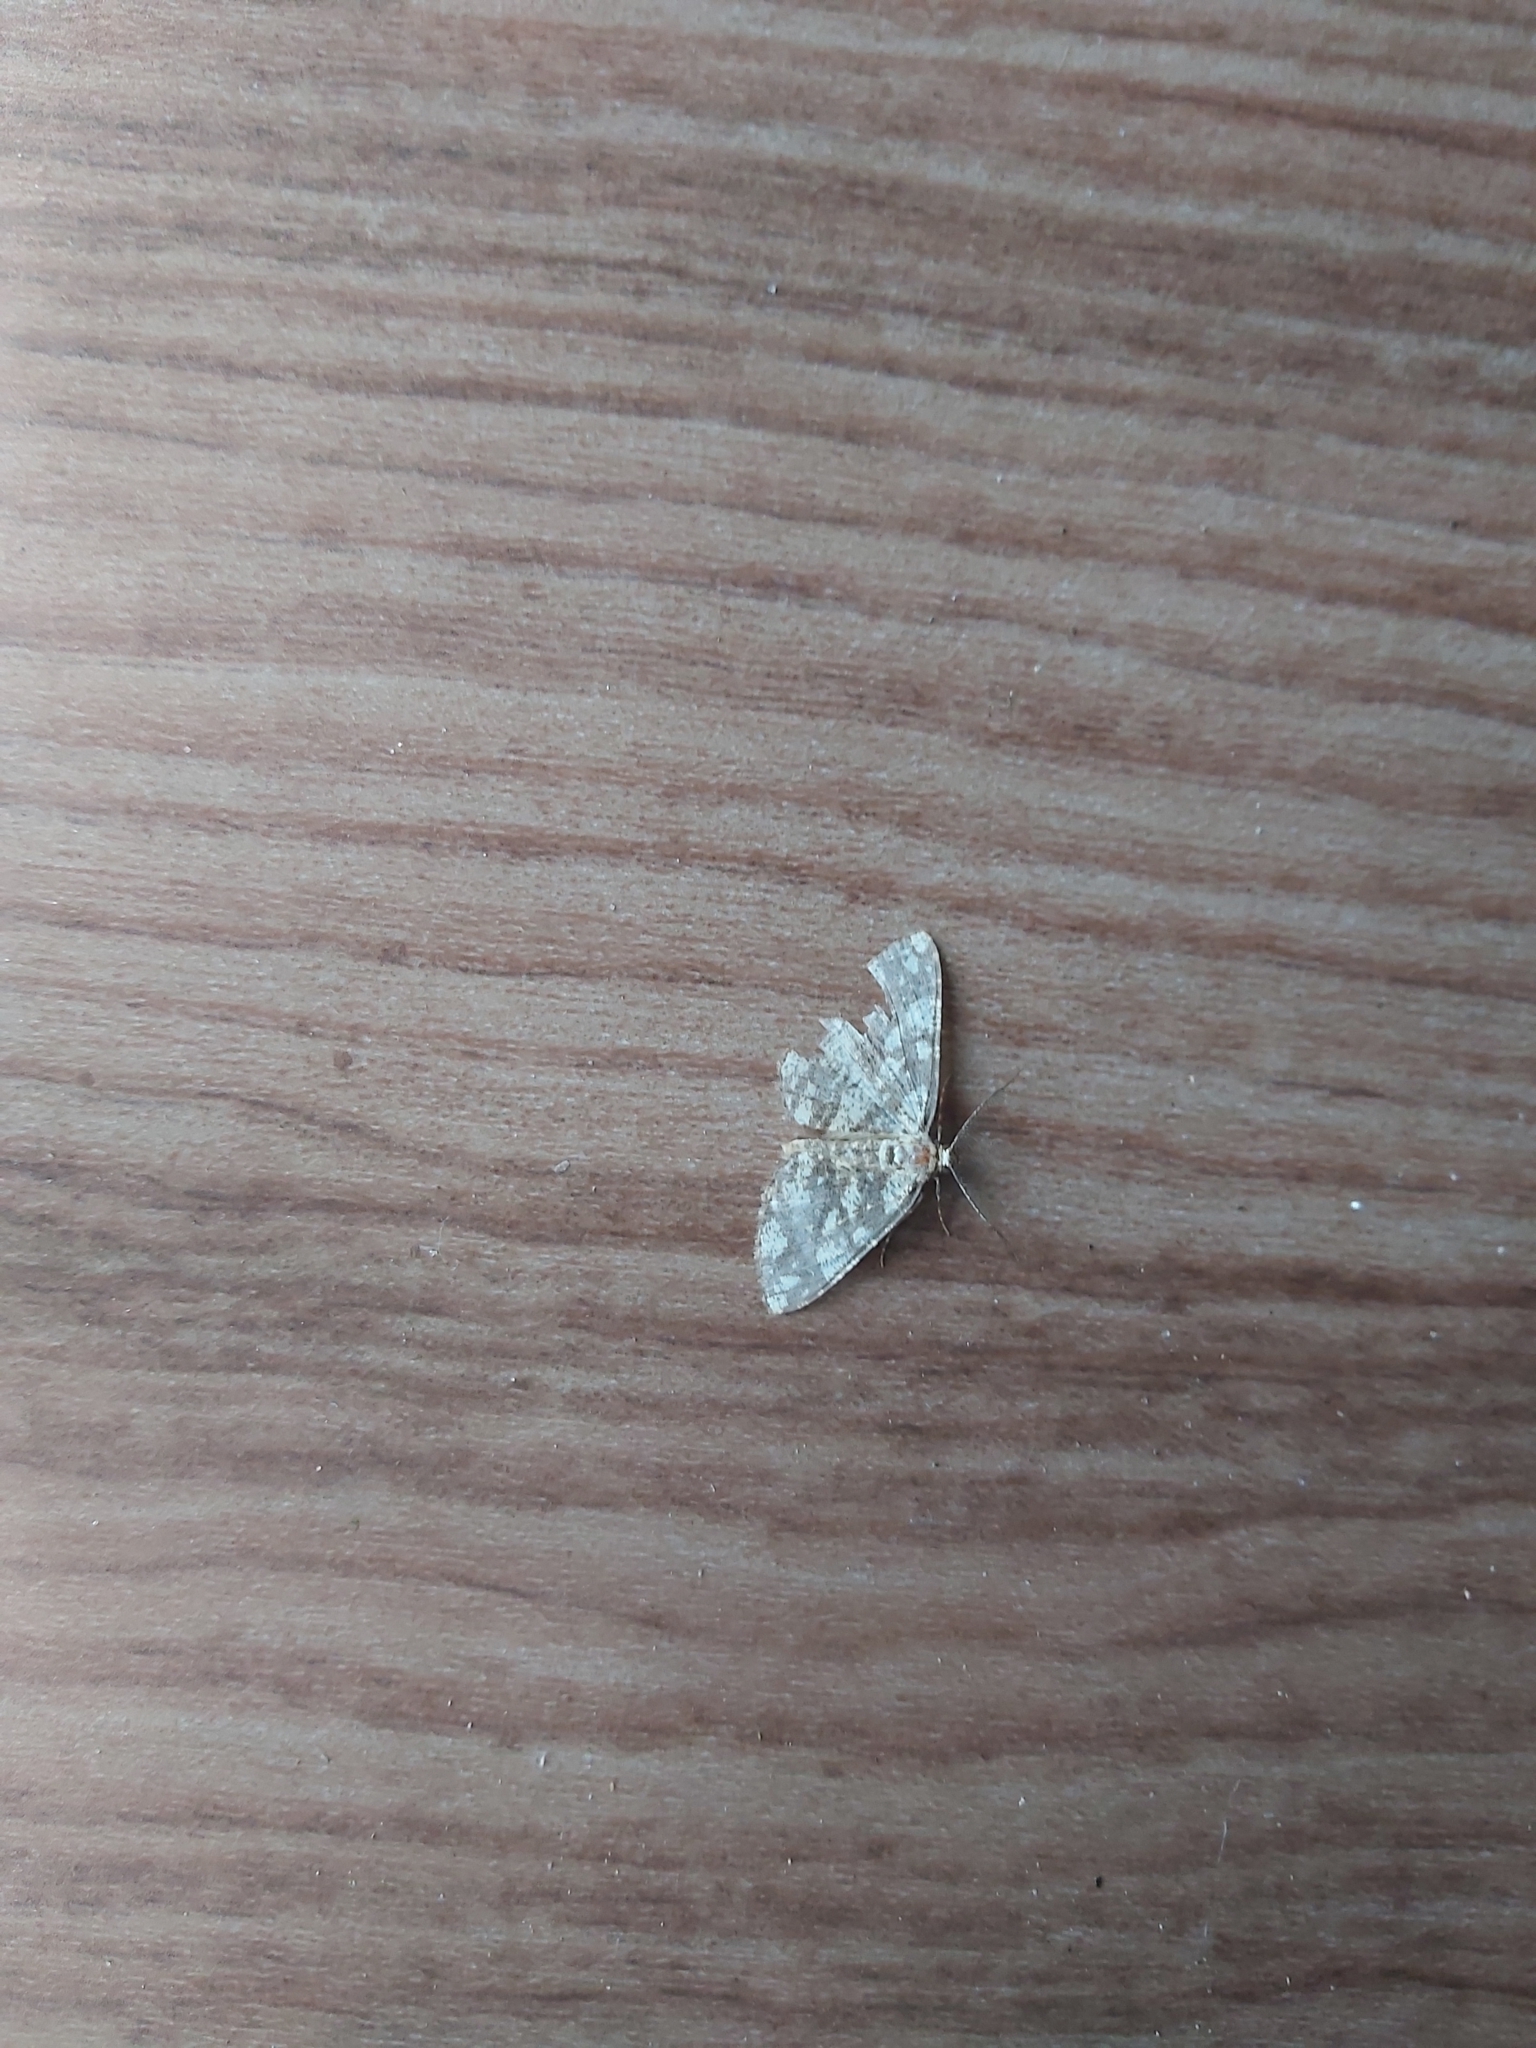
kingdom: Animalia
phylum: Arthropoda
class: Insecta
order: Lepidoptera
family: Geometridae
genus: Alcis
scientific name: Alcis maculata
